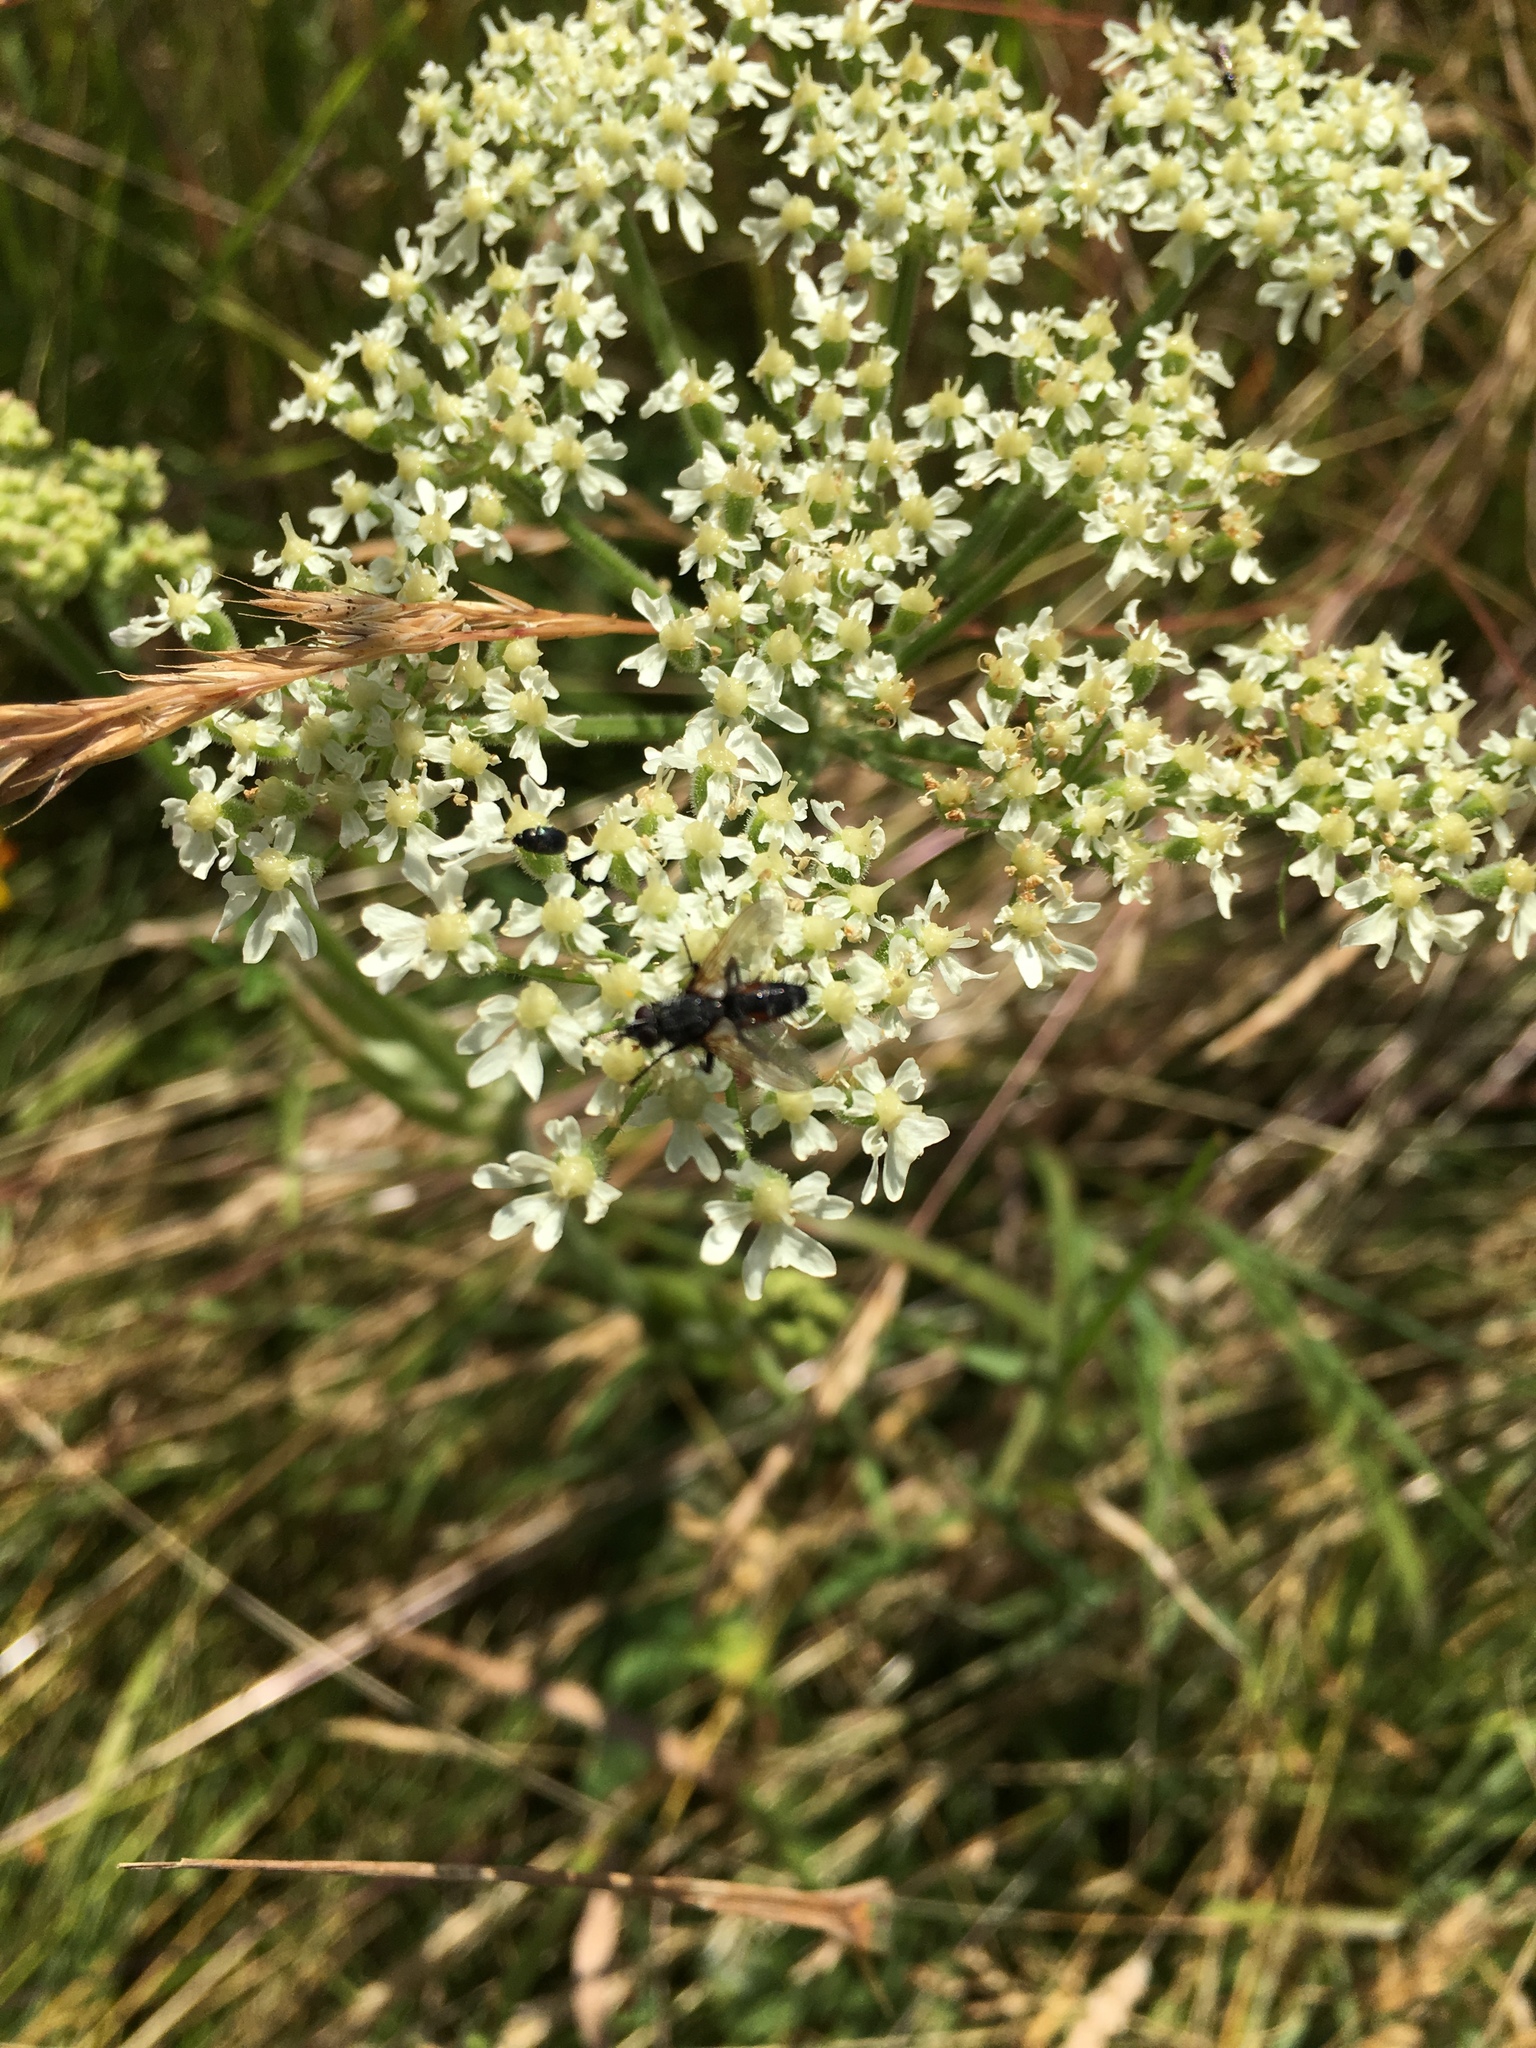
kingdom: Animalia
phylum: Arthropoda
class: Insecta
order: Diptera
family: Tachinidae
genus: Eriothrix
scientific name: Eriothrix rufomaculatus
